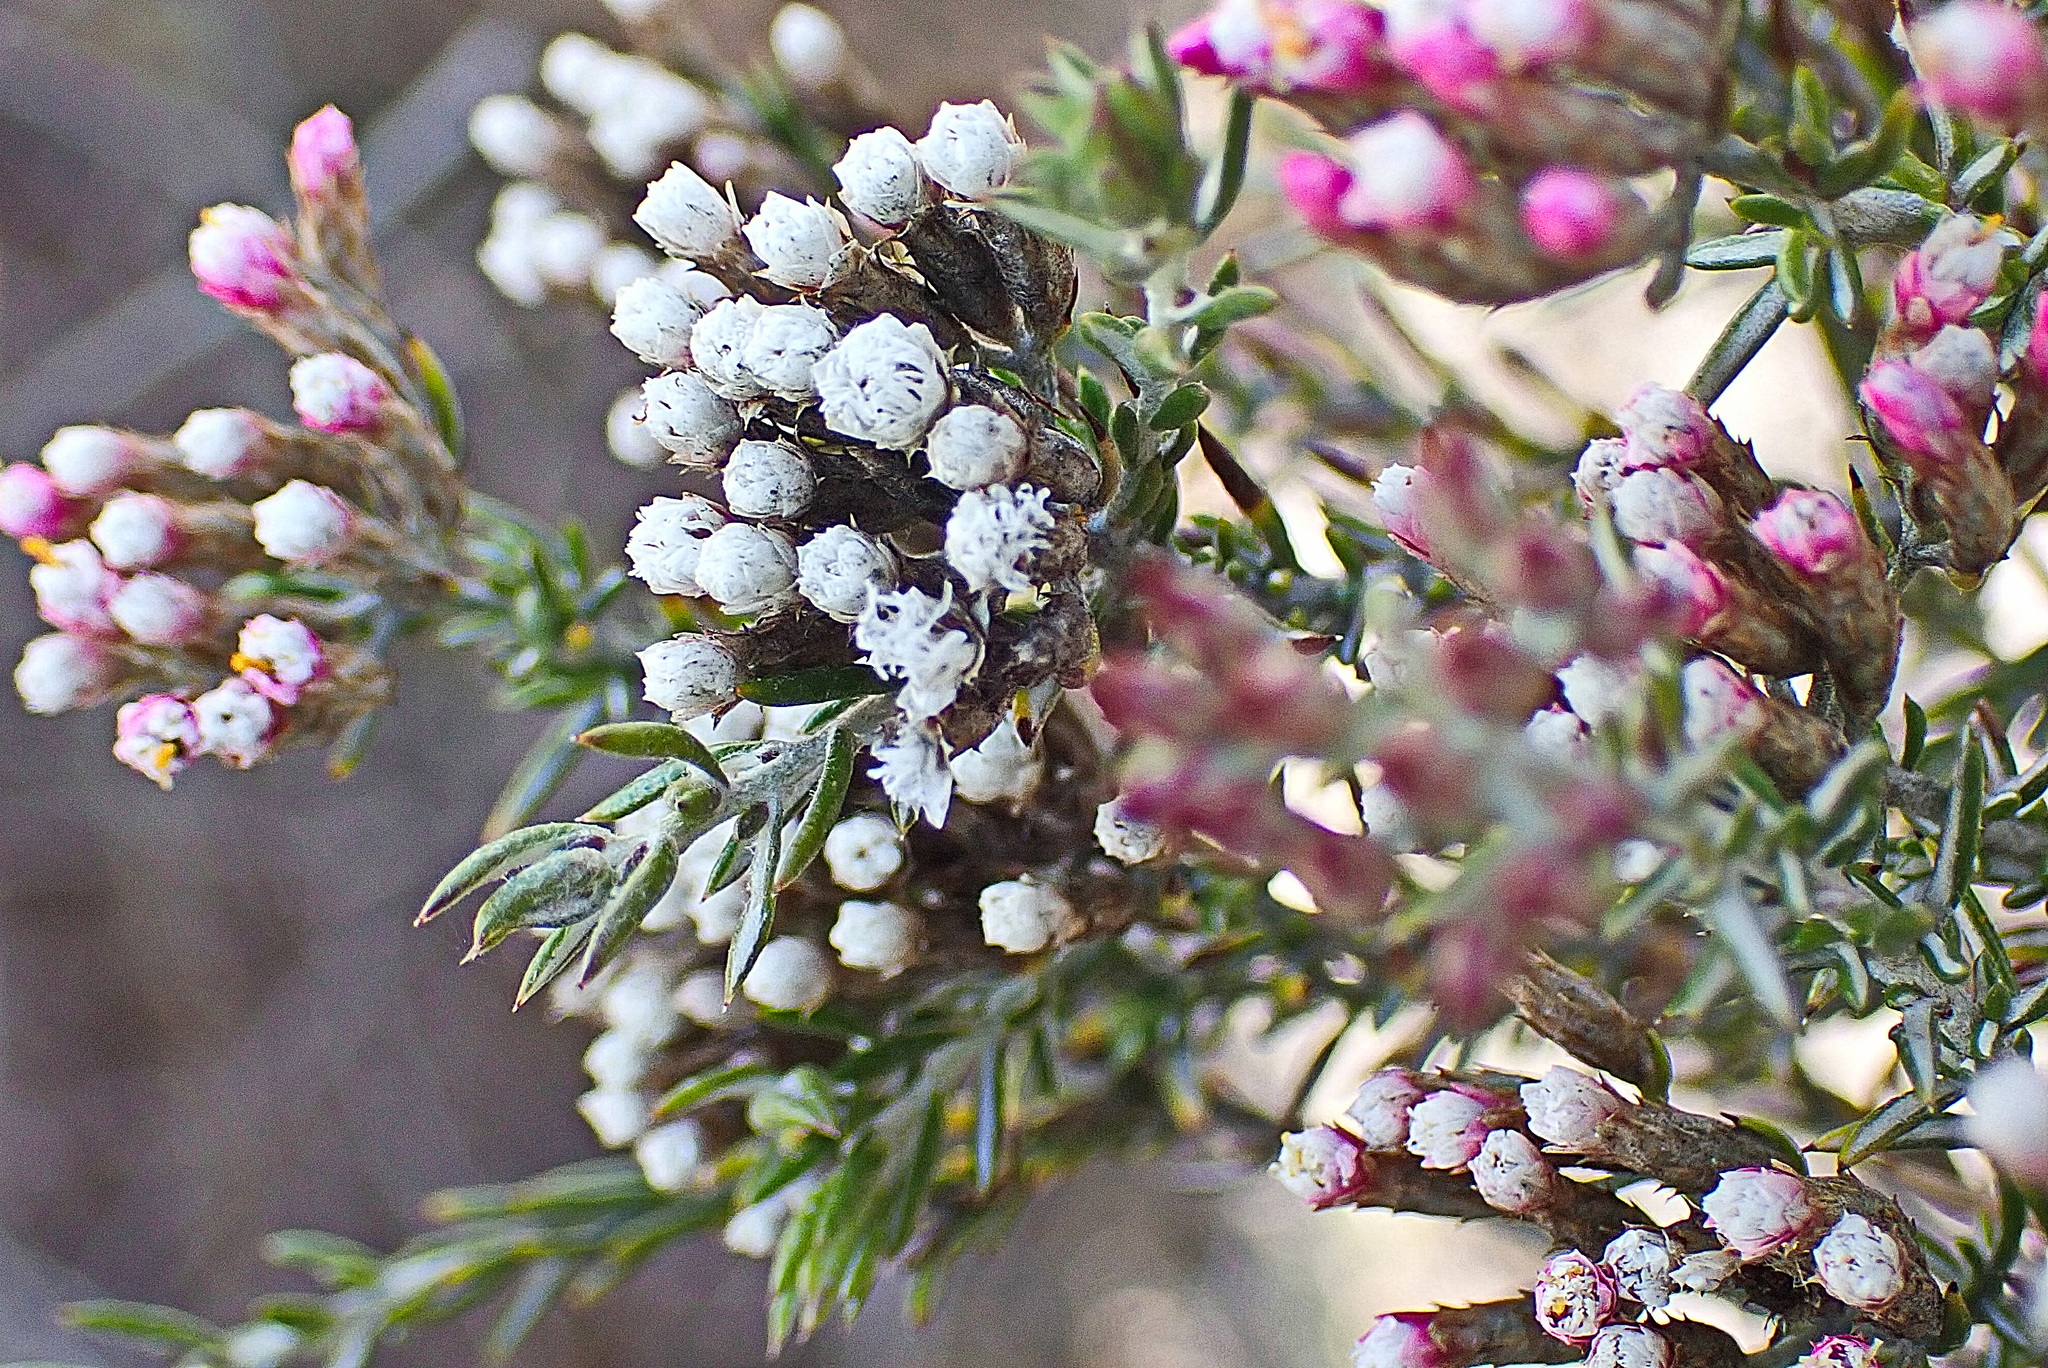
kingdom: Plantae
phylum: Tracheophyta
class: Magnoliopsida
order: Asterales
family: Asteraceae
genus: Metalasia
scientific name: Metalasia tricolor
